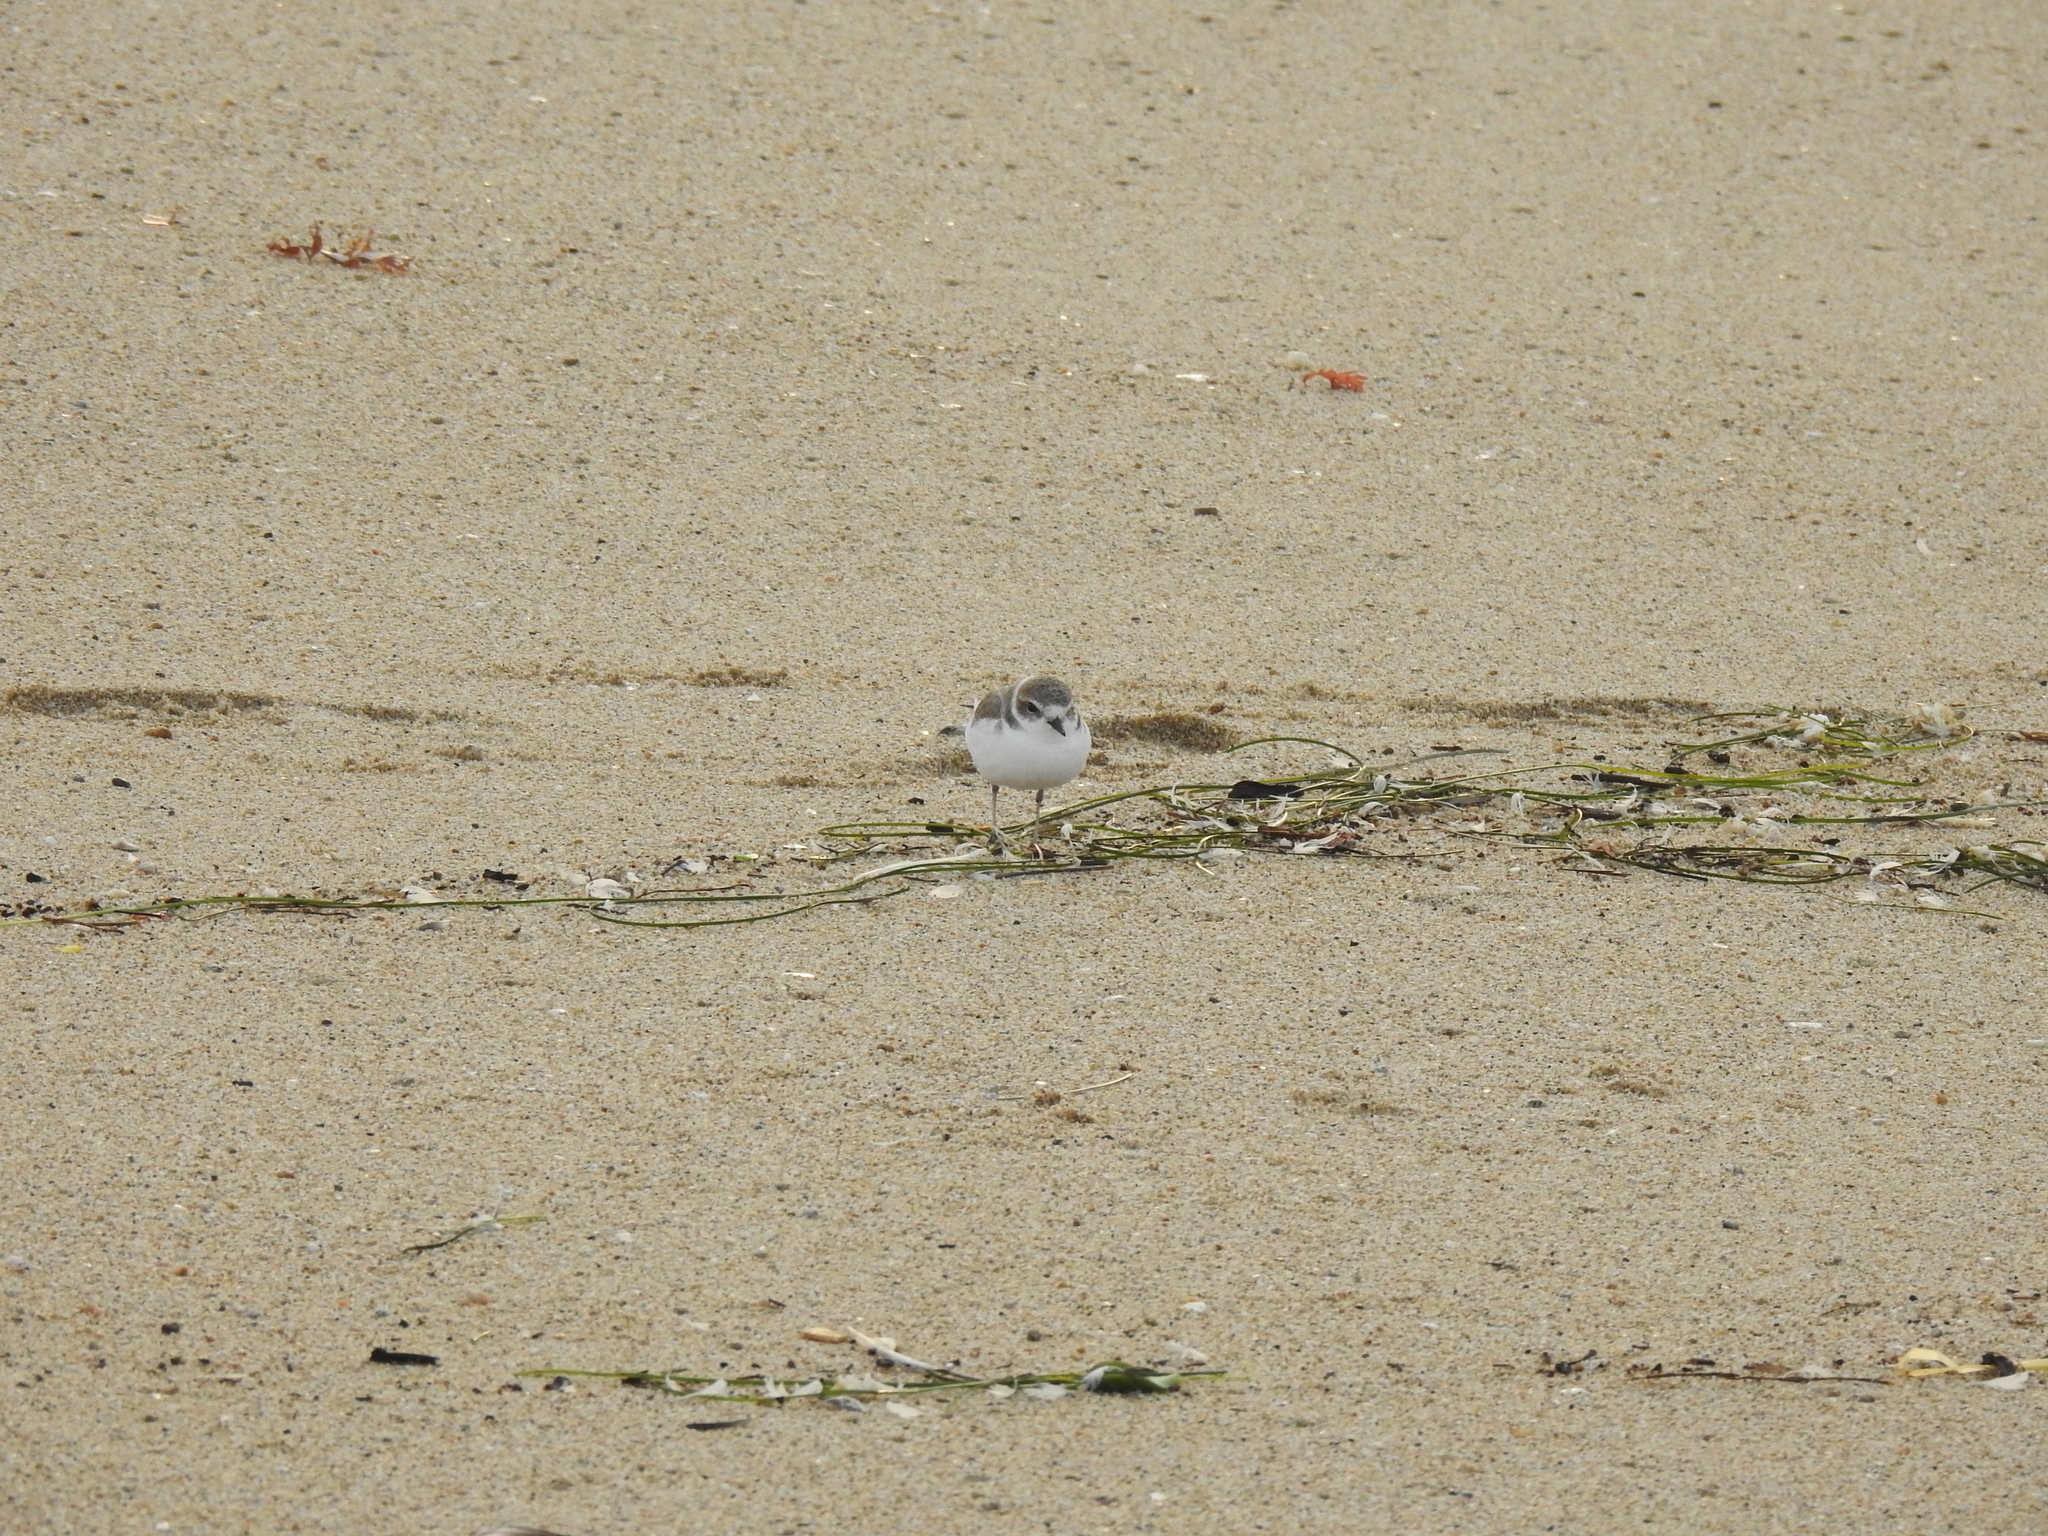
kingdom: Animalia
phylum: Chordata
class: Aves
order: Charadriiformes
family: Charadriidae
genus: Anarhynchus
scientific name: Anarhynchus
